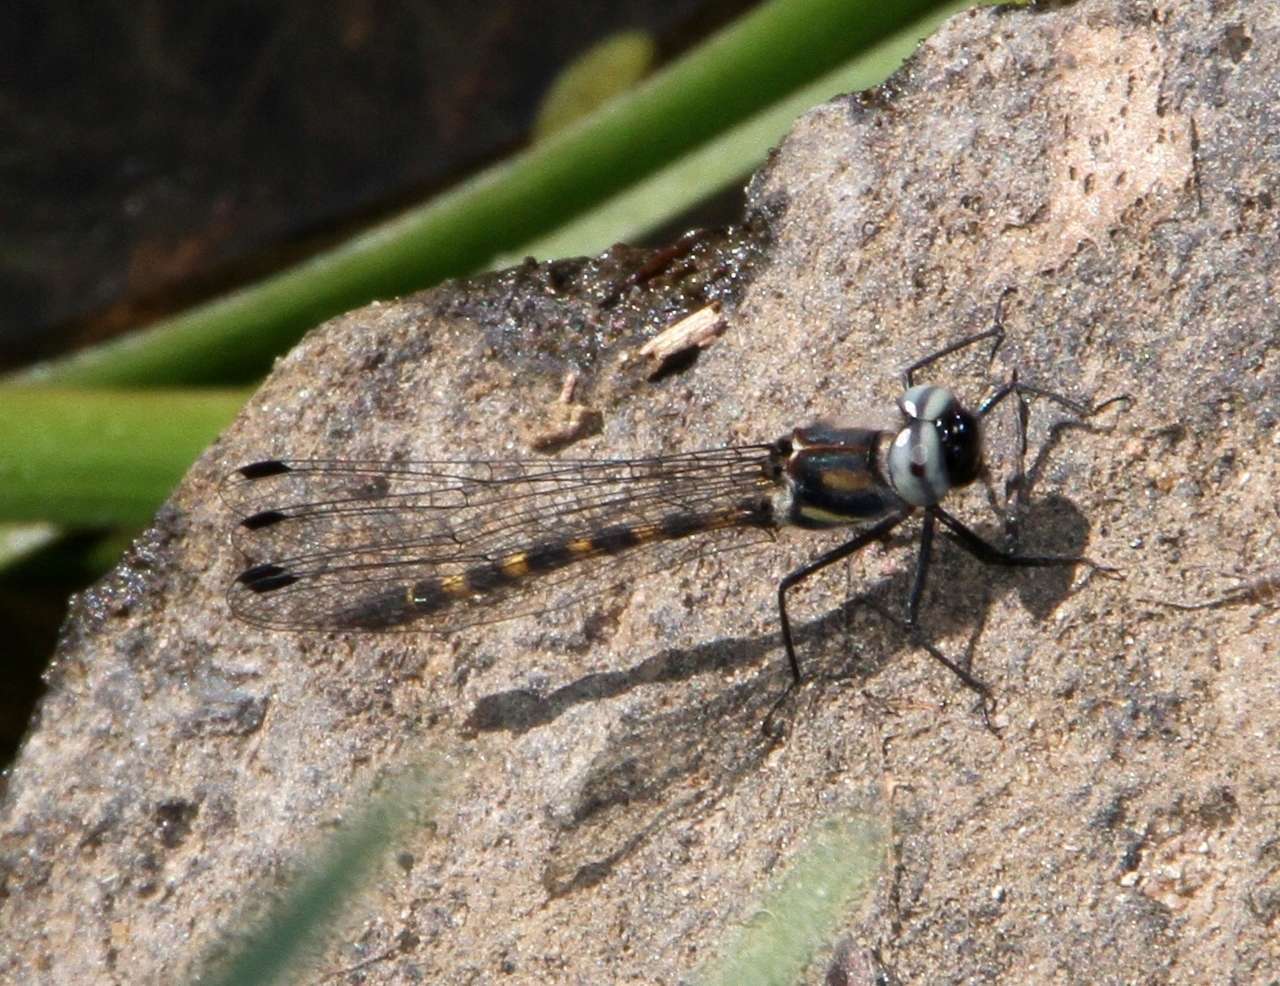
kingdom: Animalia
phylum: Arthropoda
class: Insecta
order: Odonata
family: Corduliidae
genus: Cordulephya
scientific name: Cordulephya pygmaea
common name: Common shutwing
